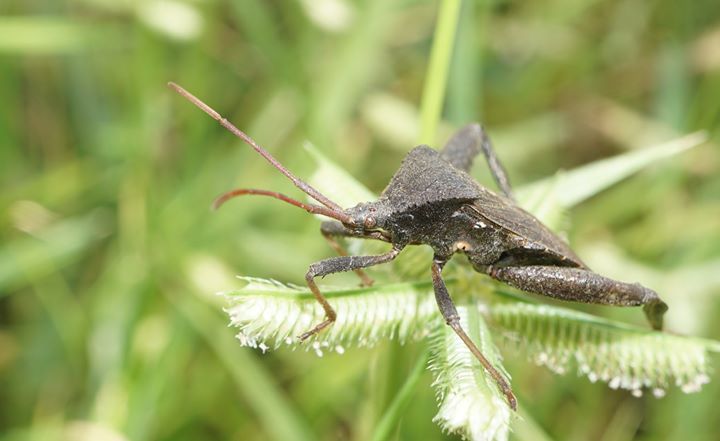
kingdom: Animalia
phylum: Arthropoda
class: Insecta
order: Hemiptera
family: Coreidae
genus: Acanthocephala
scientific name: Acanthocephala femorata
